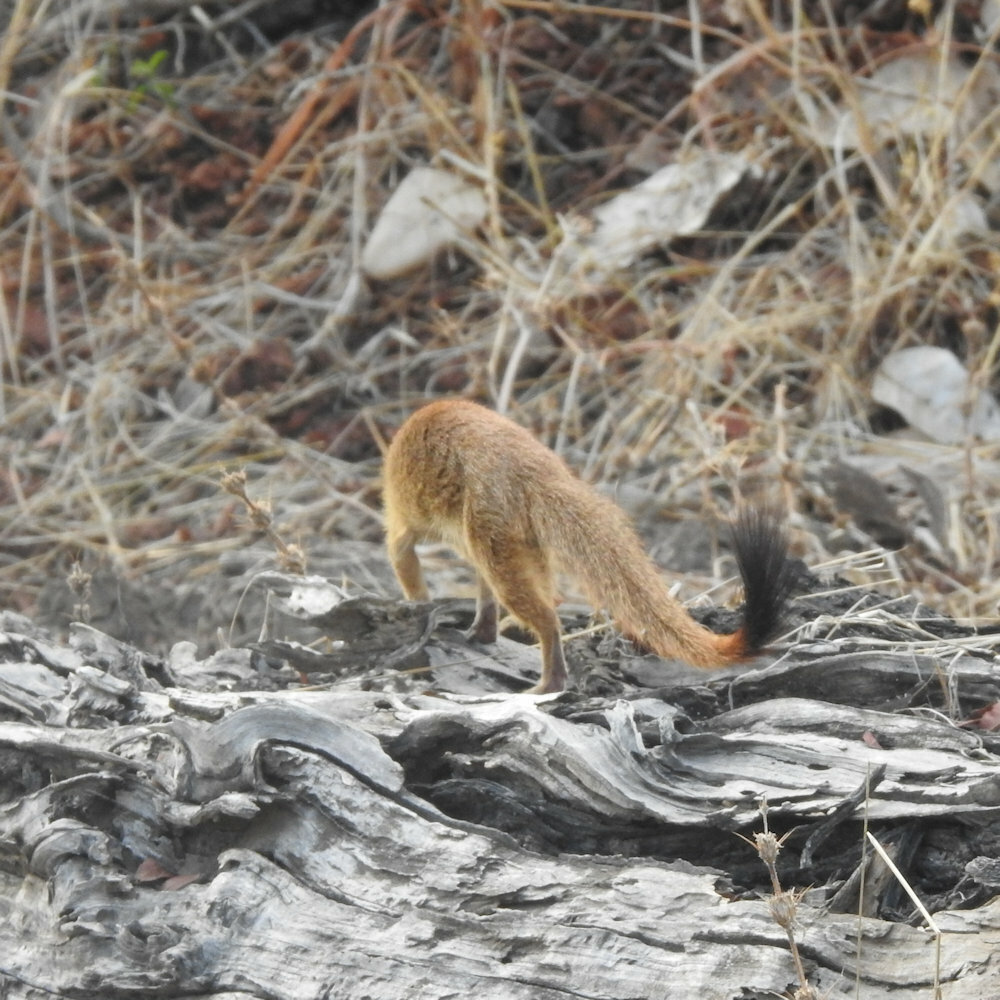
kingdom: Animalia
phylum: Chordata
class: Mammalia
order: Carnivora
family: Herpestidae
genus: Galerella
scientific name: Galerella sanguinea
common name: Slender mongoose
